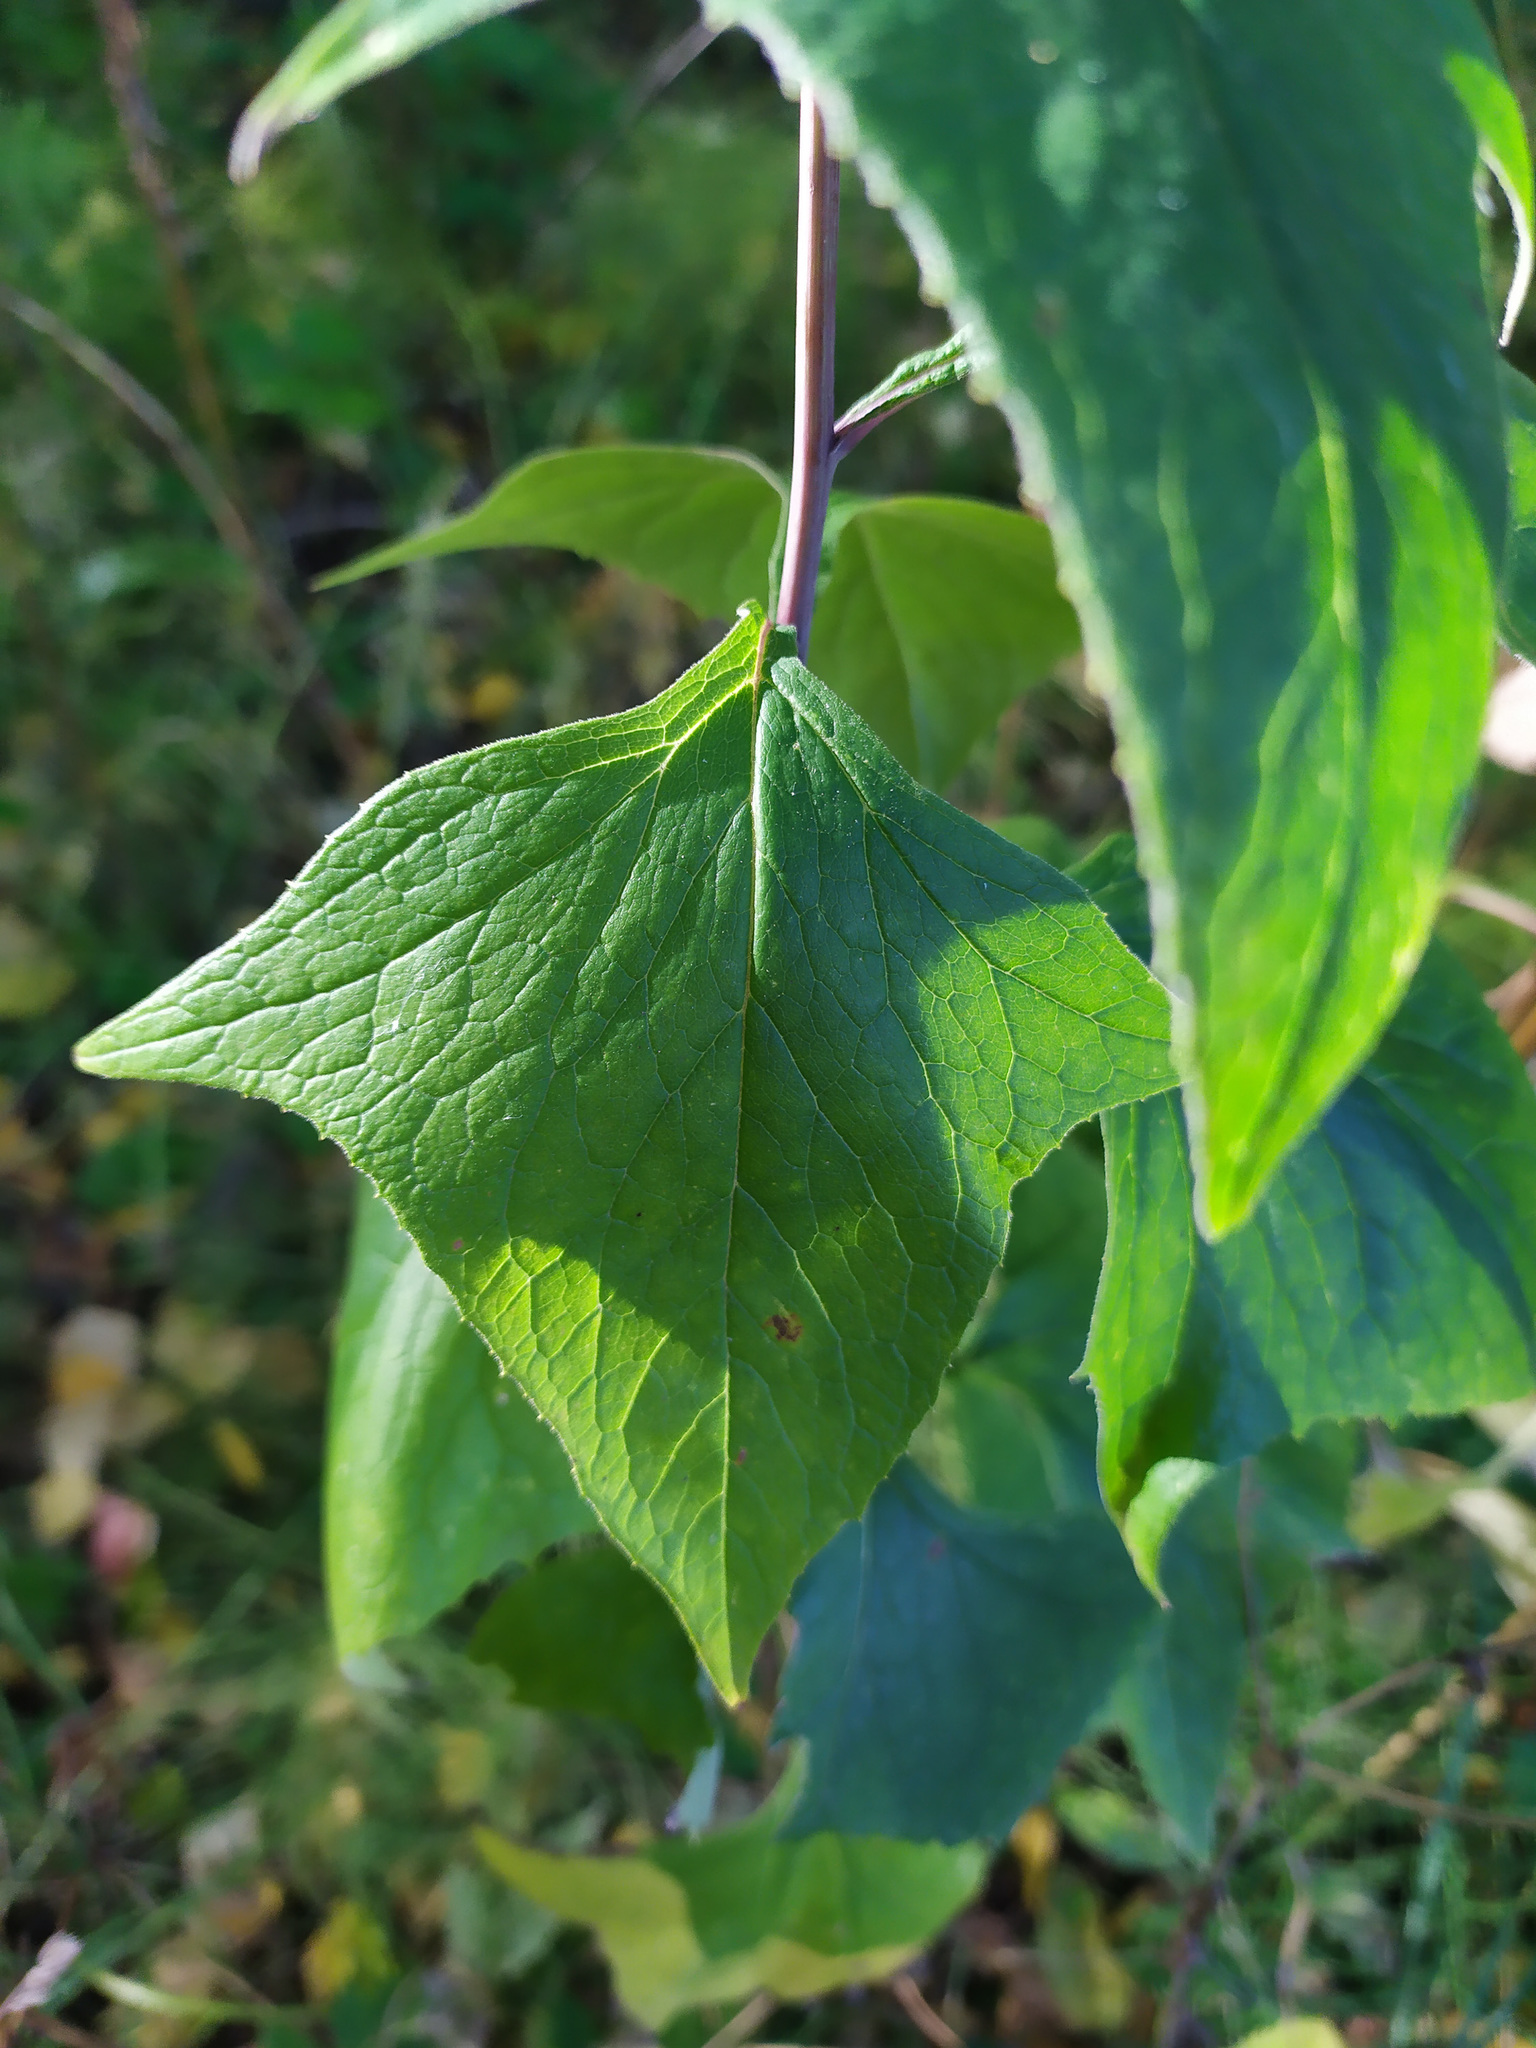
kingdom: Plantae
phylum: Tracheophyta
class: Magnoliopsida
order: Asterales
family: Asteraceae
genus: Parasenecio
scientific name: Parasenecio hastatus
